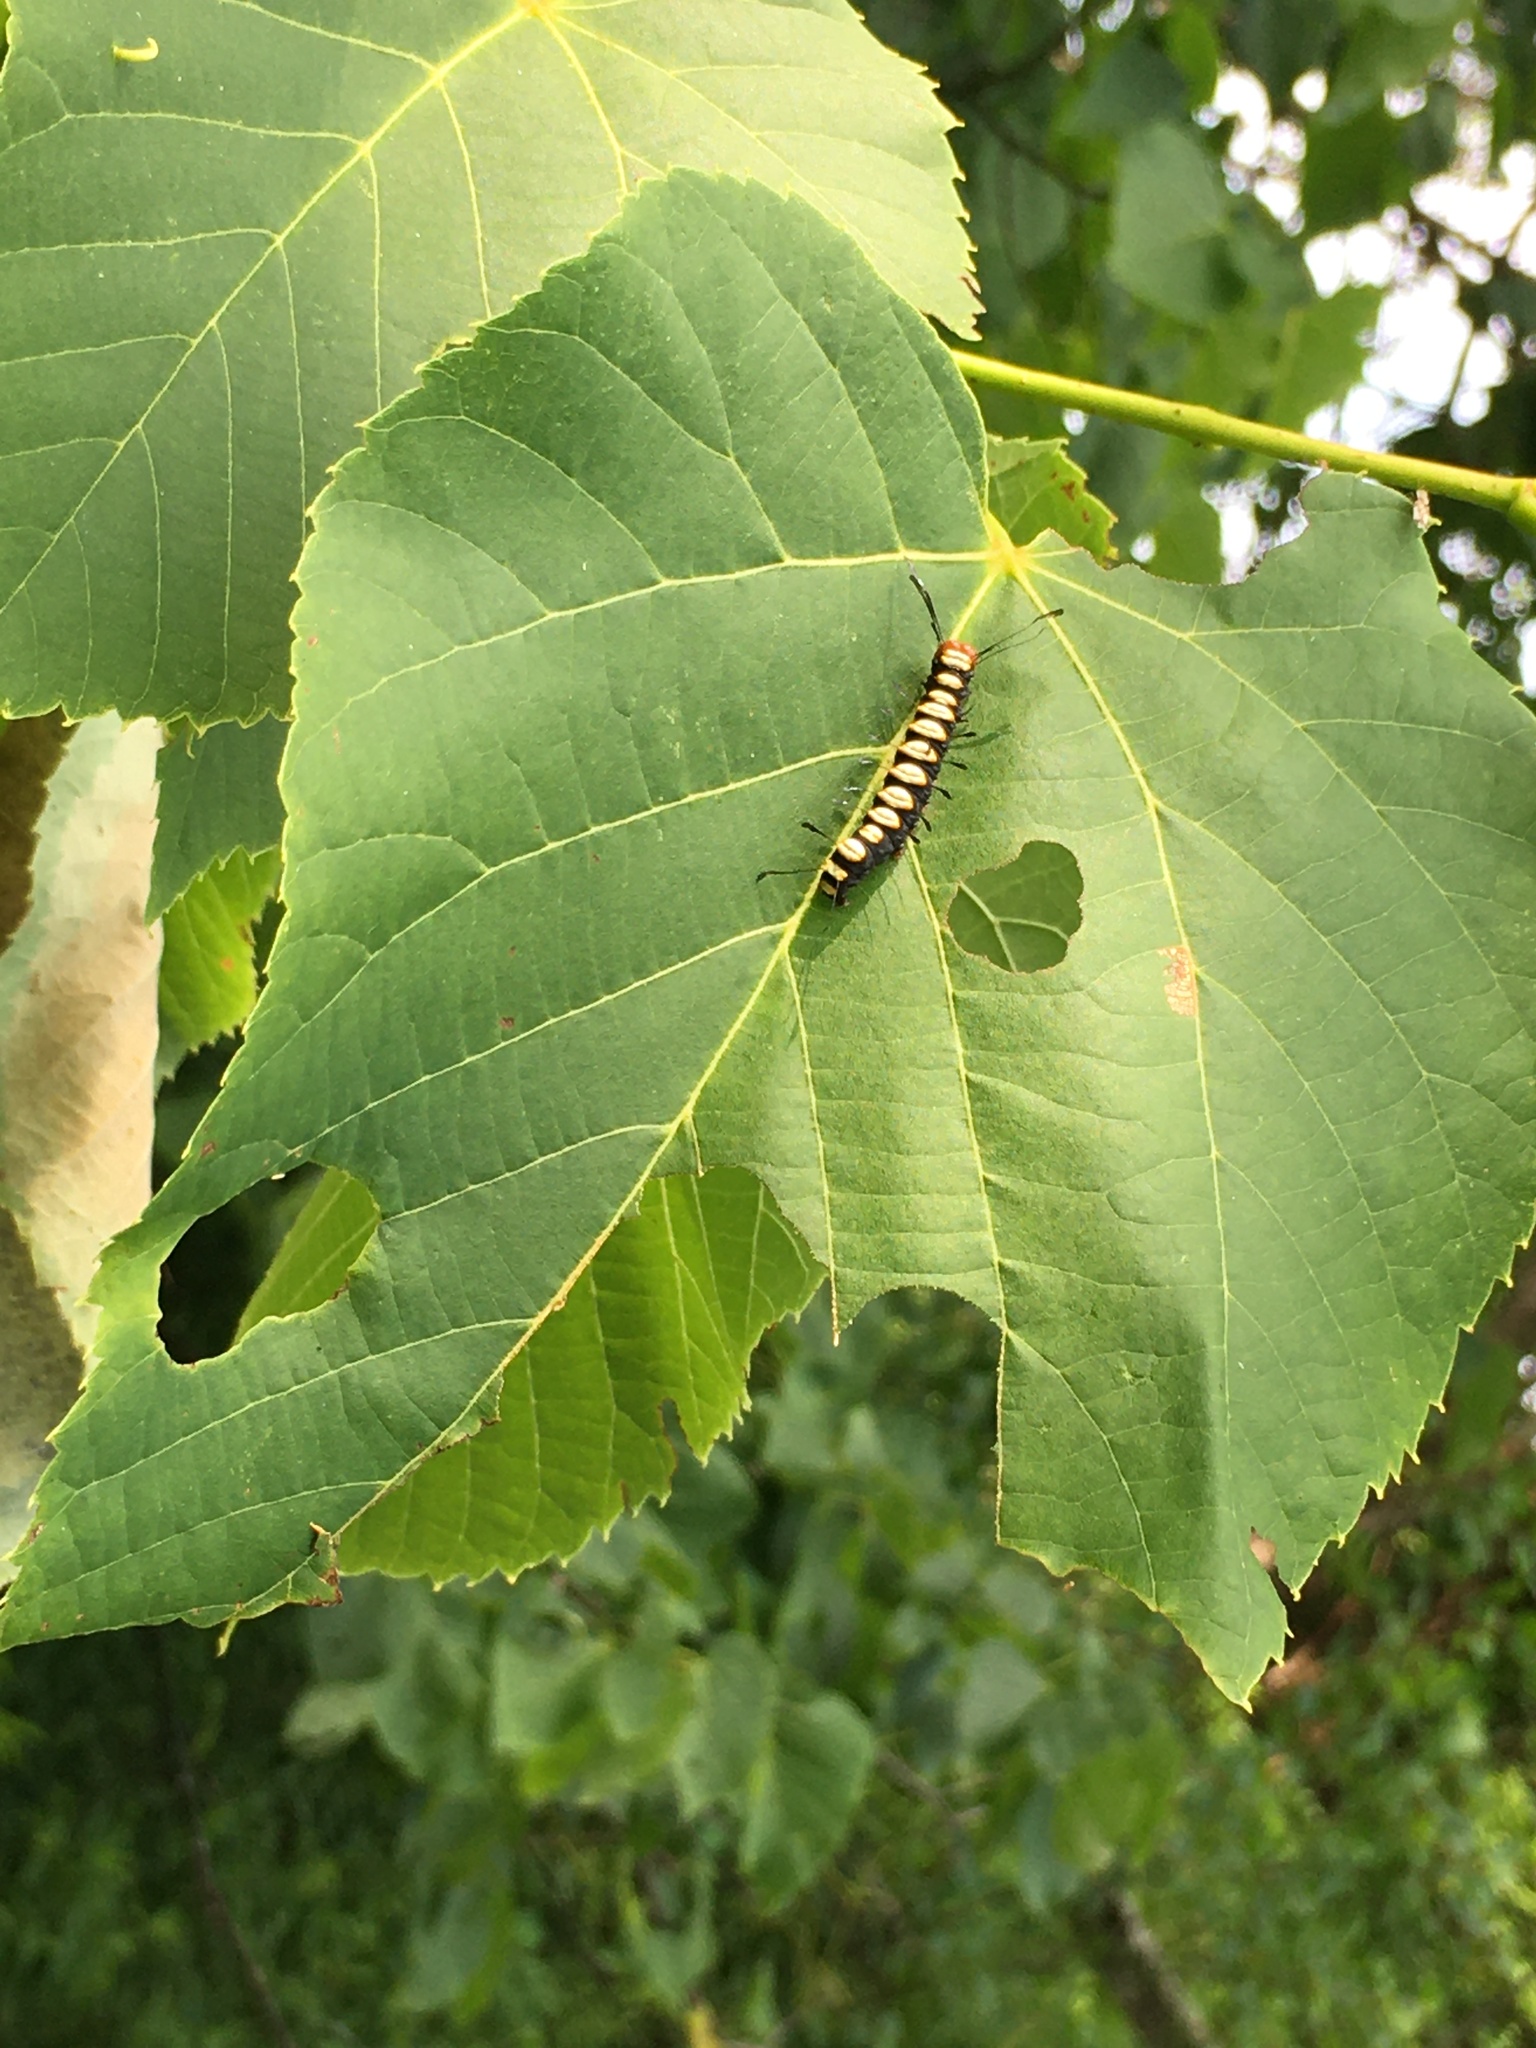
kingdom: Animalia
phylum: Arthropoda
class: Insecta
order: Lepidoptera
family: Noctuidae
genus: Acronicta
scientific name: Acronicta funeralis
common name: Funerary dagger
